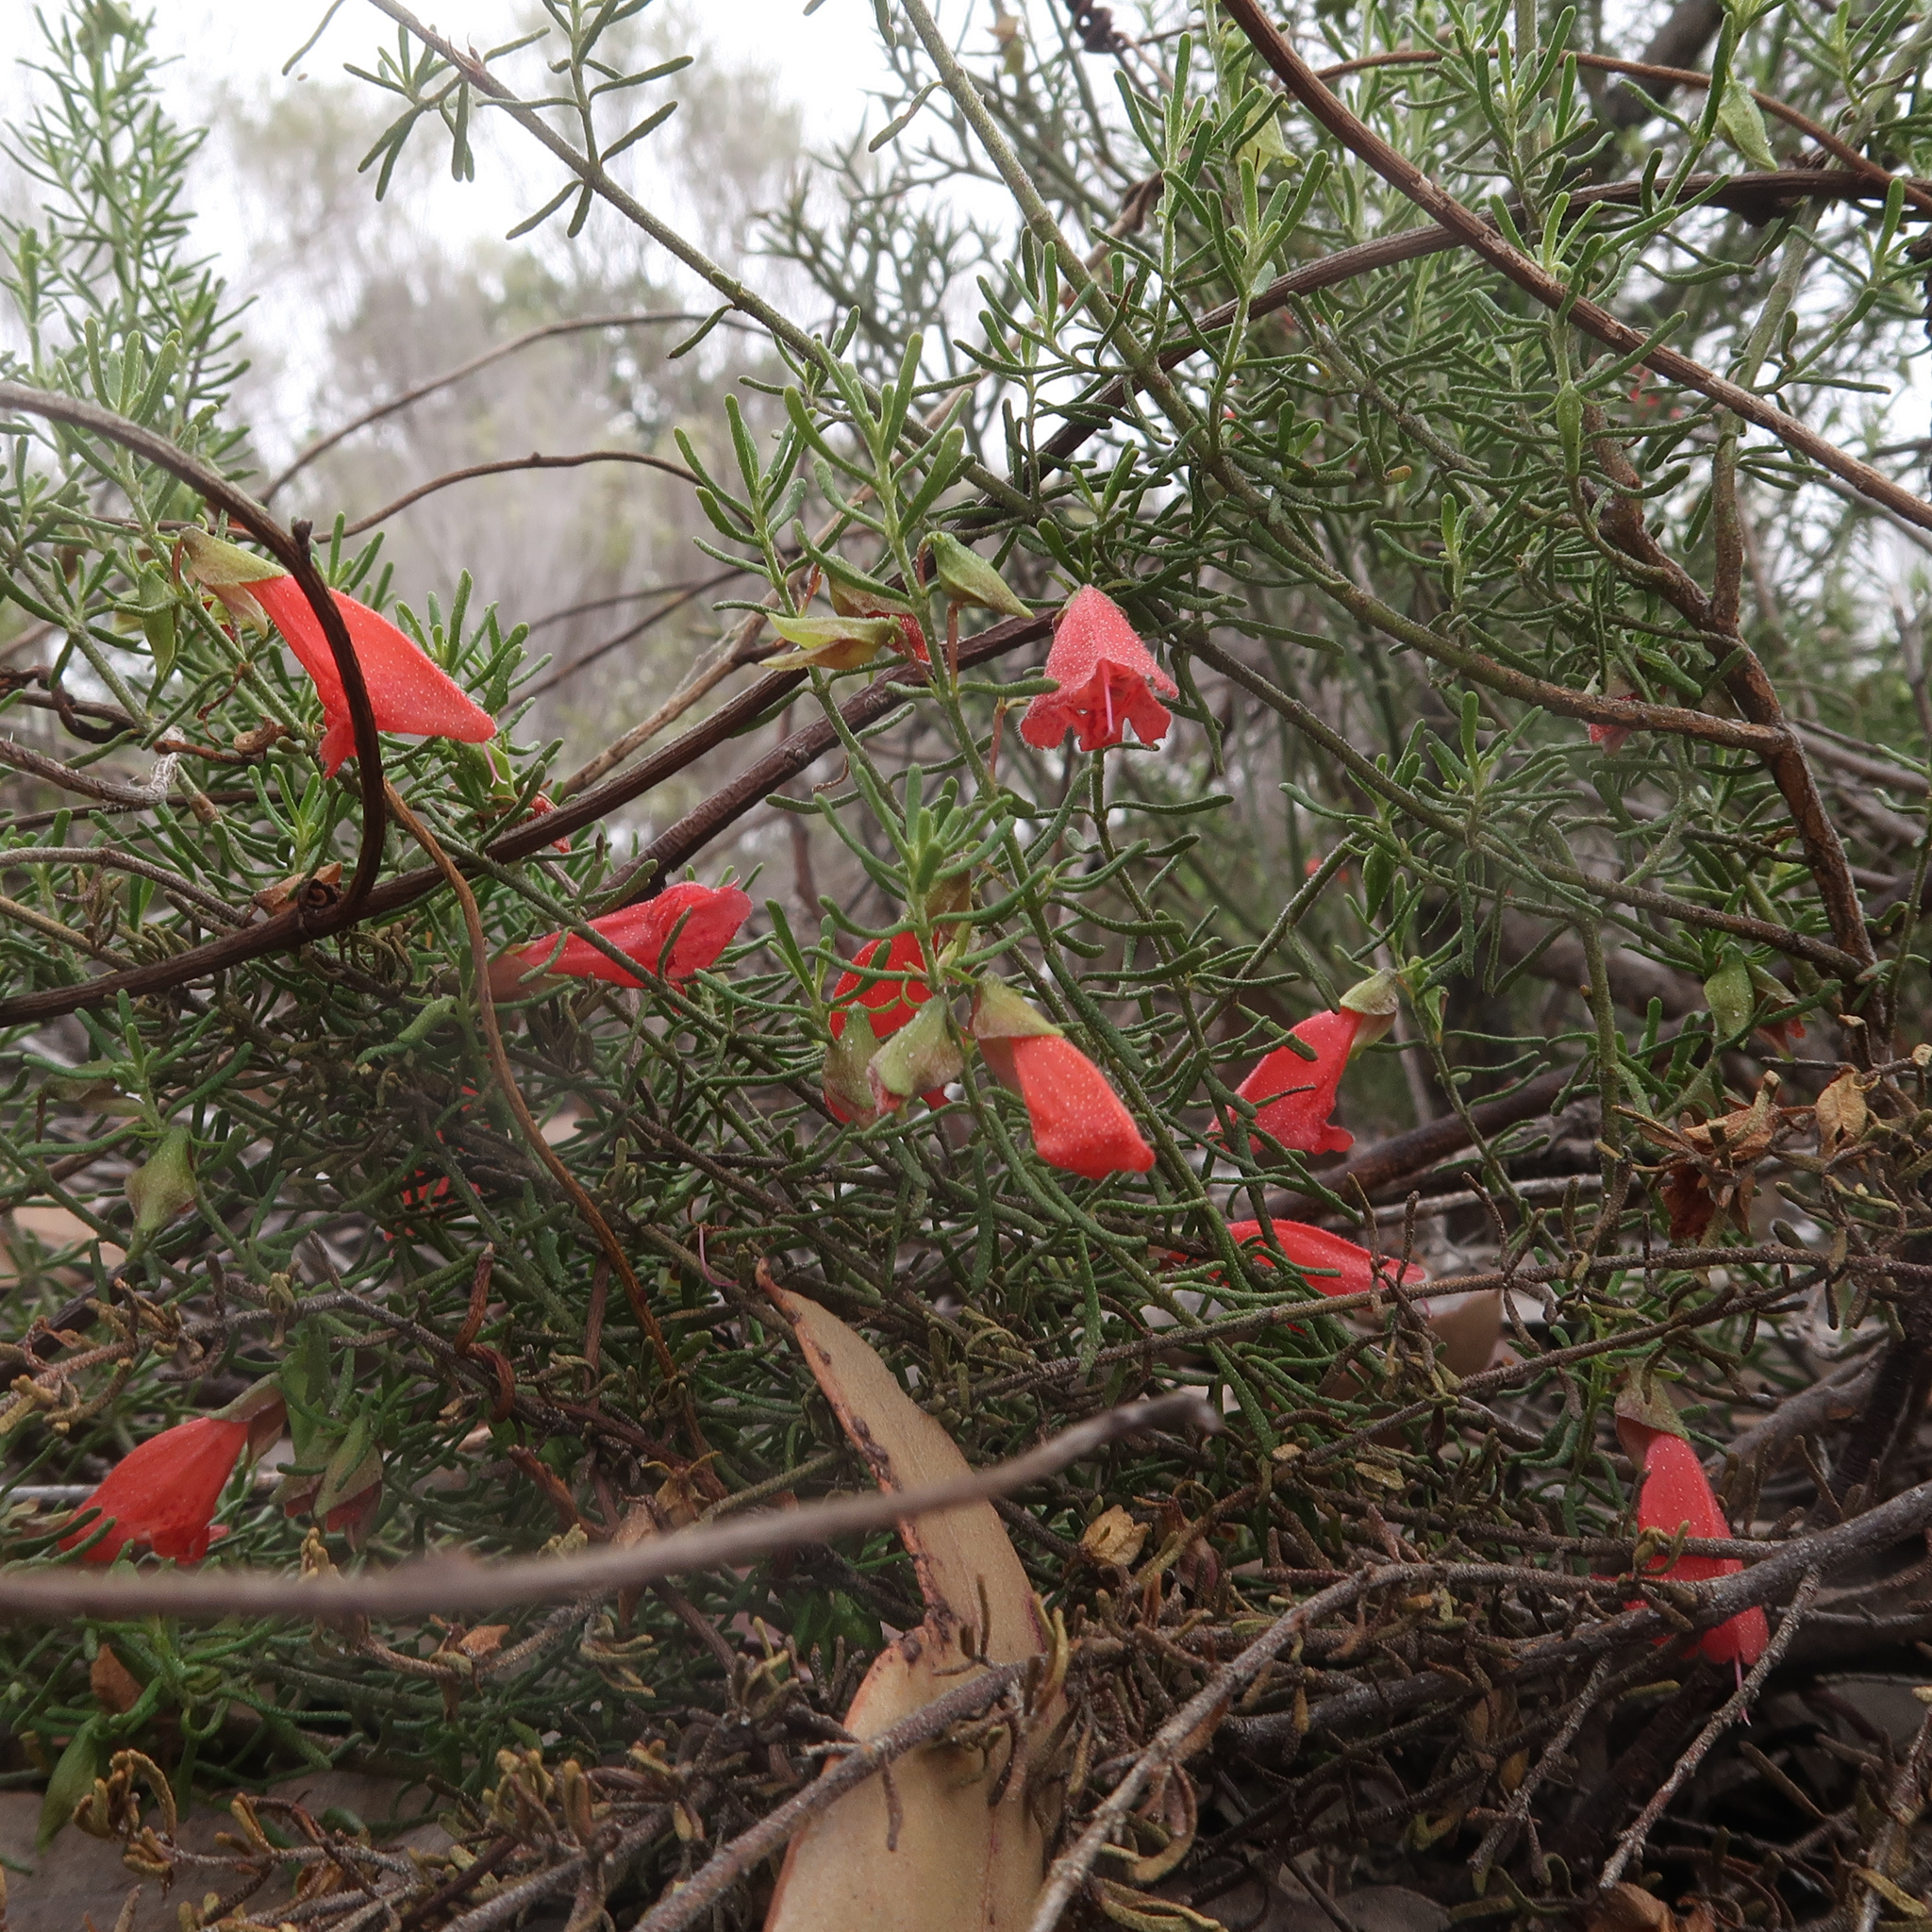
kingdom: Plantae
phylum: Tracheophyta
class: Magnoliopsida
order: Lamiales
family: Lamiaceae
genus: Prostanthera
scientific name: Prostanthera aspalathoides
